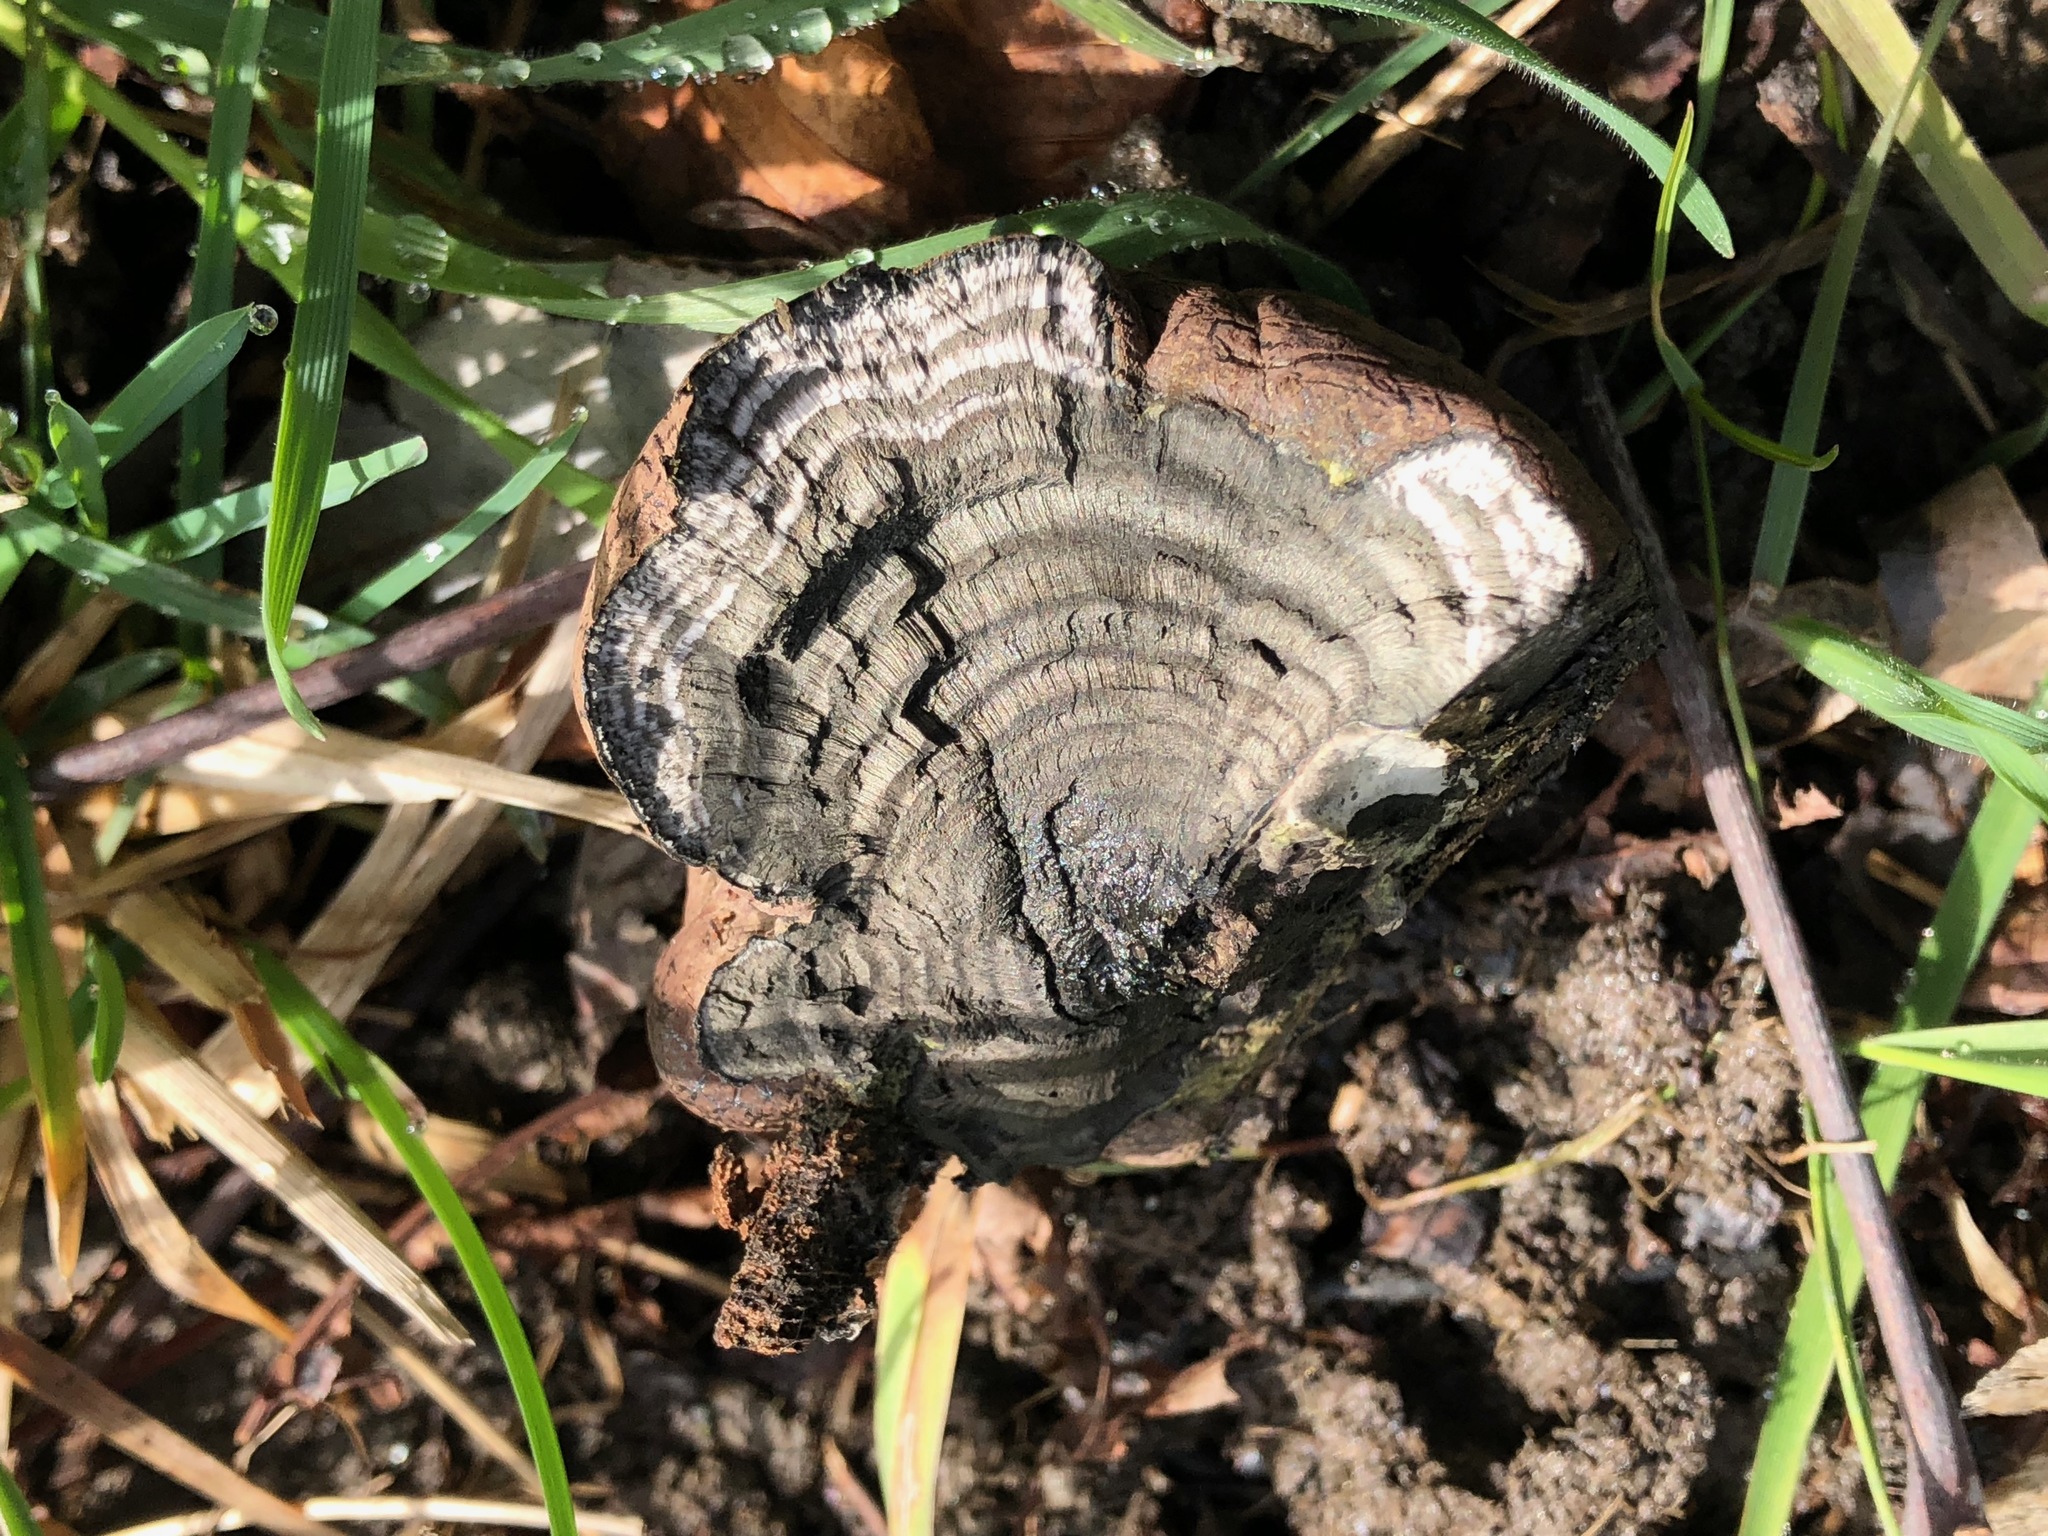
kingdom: Fungi
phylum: Ascomycota
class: Sordariomycetes
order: Xylariales
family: Hypoxylaceae
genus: Daldinia
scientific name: Daldinia concentrica
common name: Cramp balls
